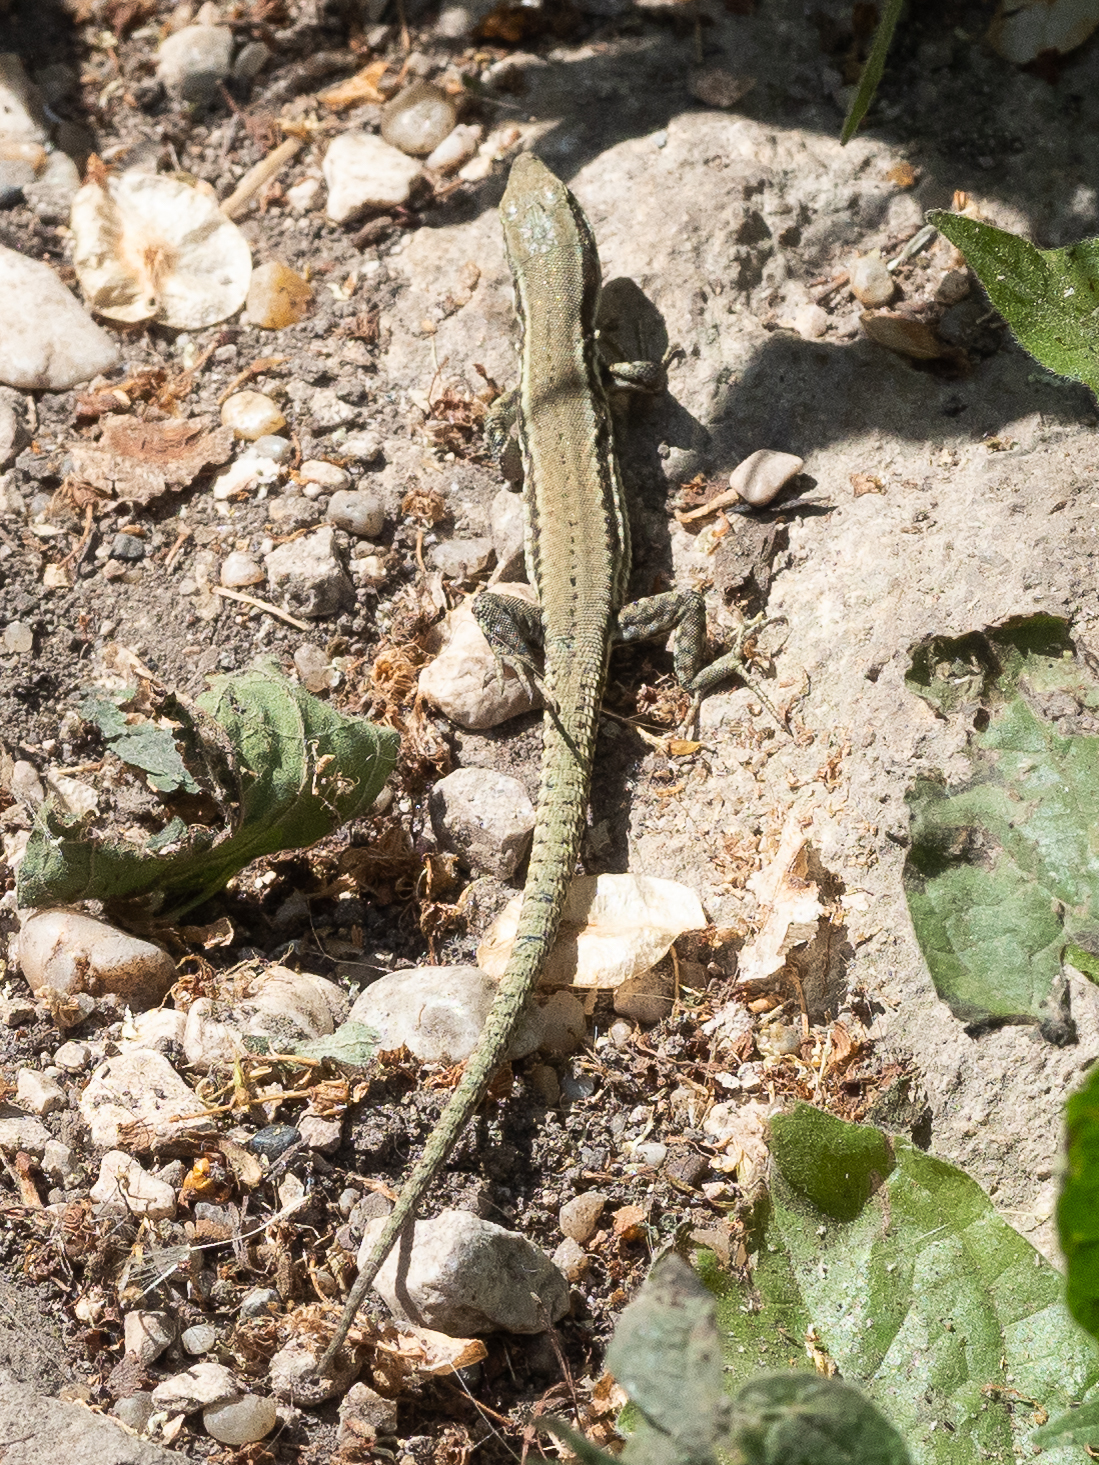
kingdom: Animalia
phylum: Chordata
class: Squamata
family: Lacertidae
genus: Podarcis
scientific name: Podarcis muralis
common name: Common wall lizard
